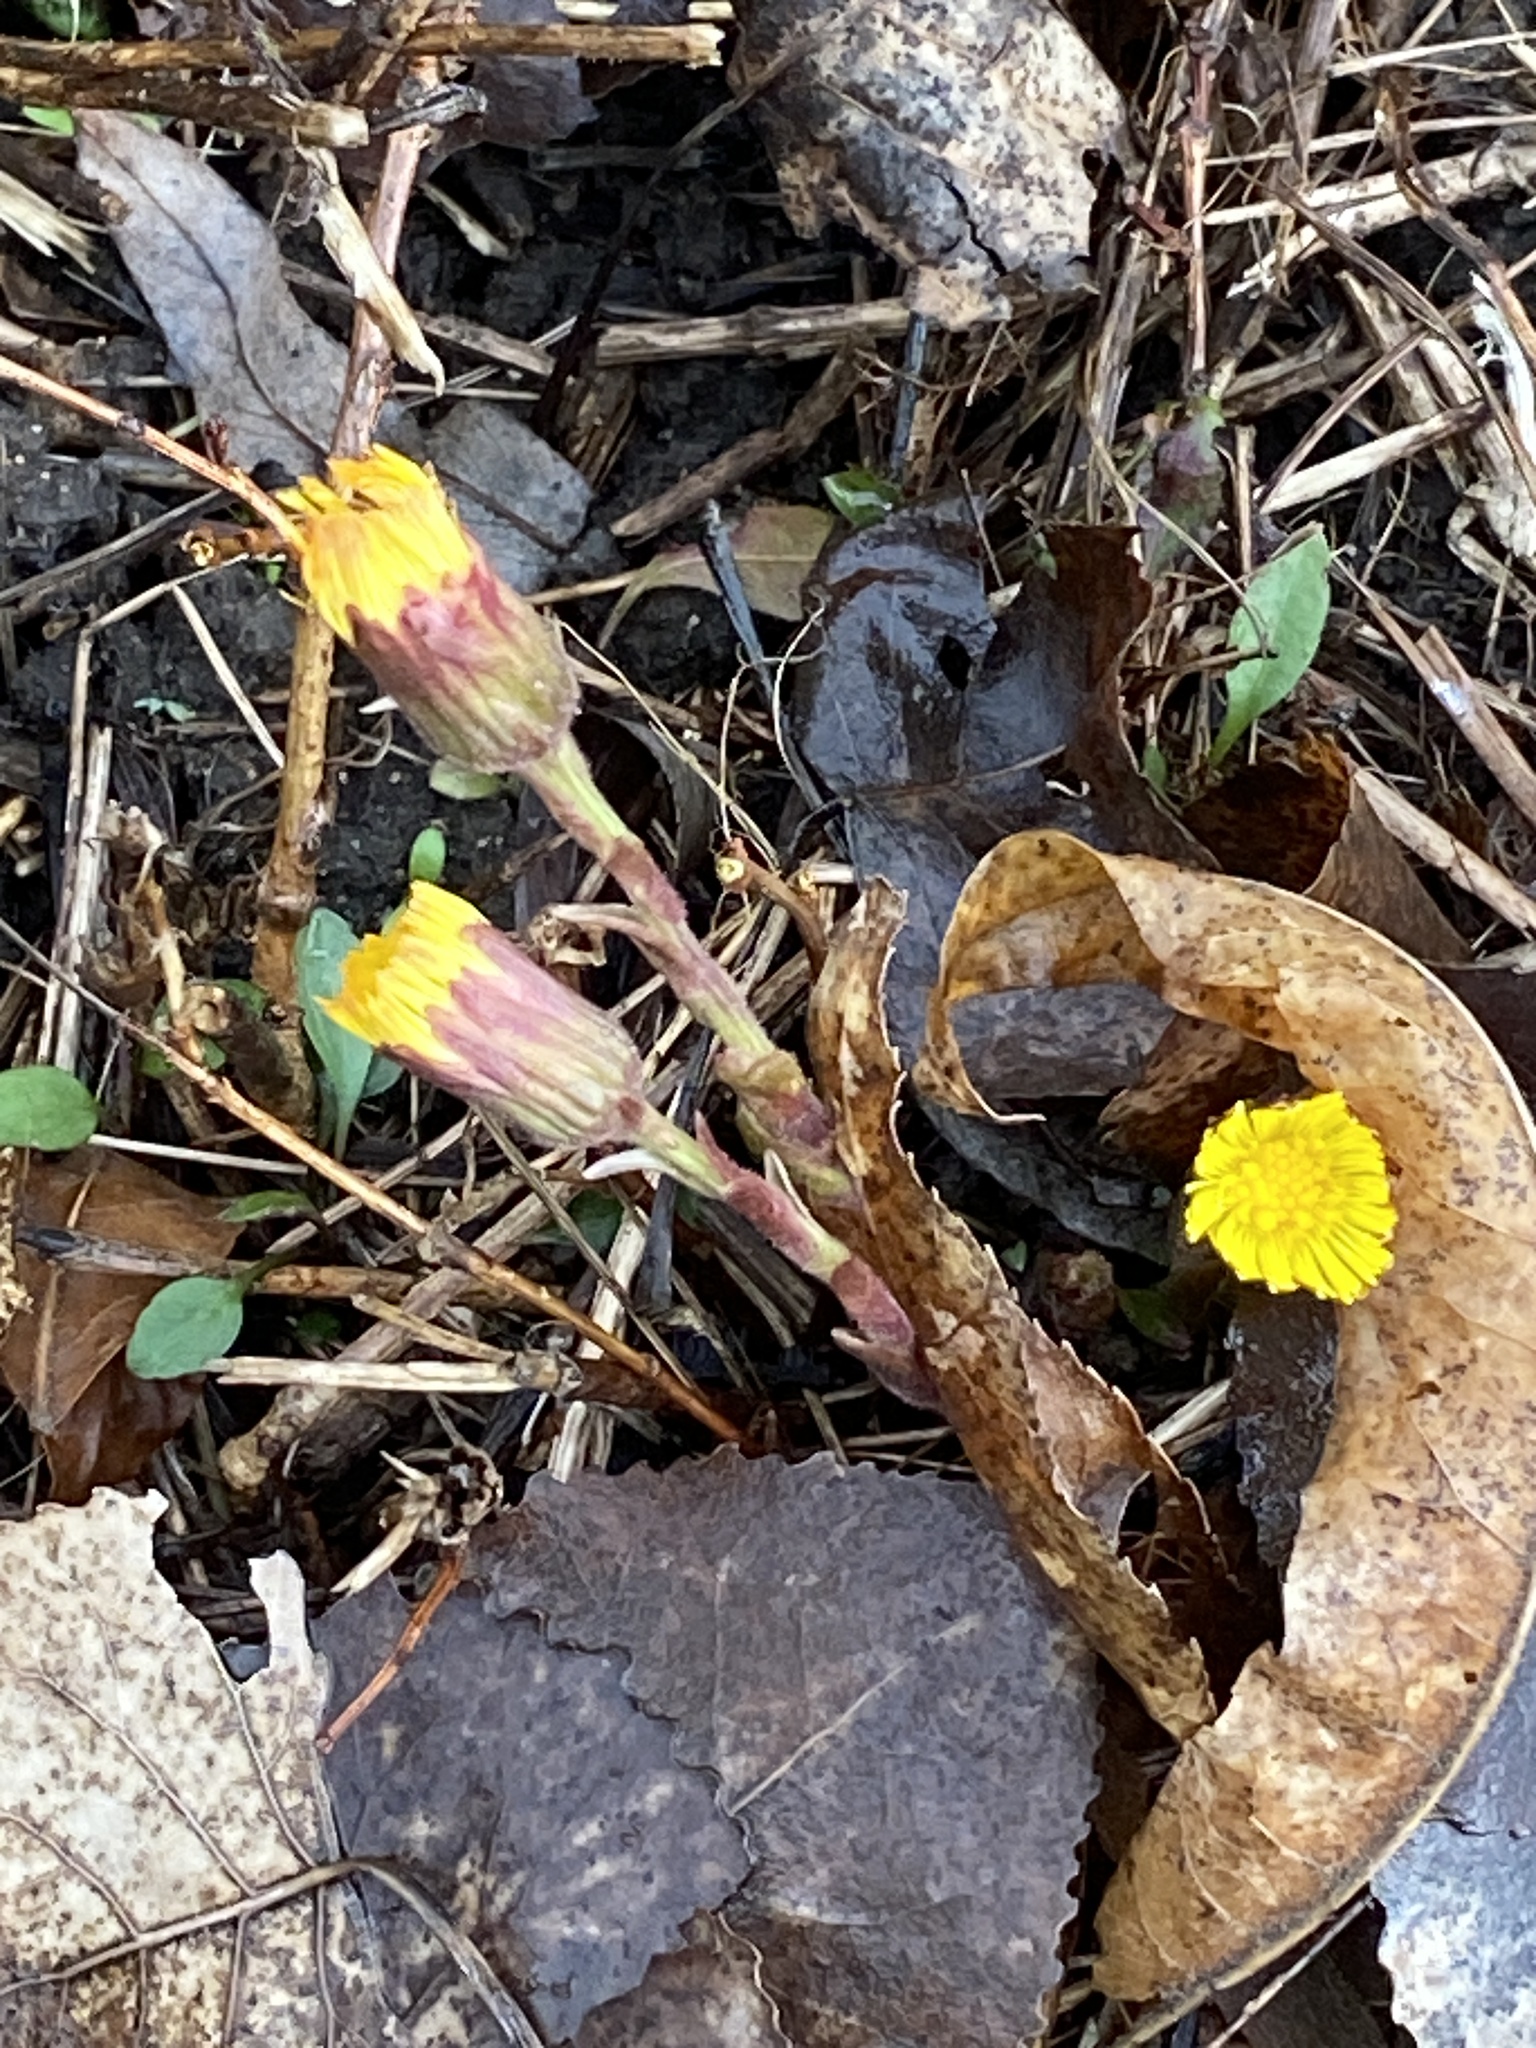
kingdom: Plantae
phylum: Tracheophyta
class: Magnoliopsida
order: Asterales
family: Asteraceae
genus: Tussilago
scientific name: Tussilago farfara
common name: Coltsfoot
